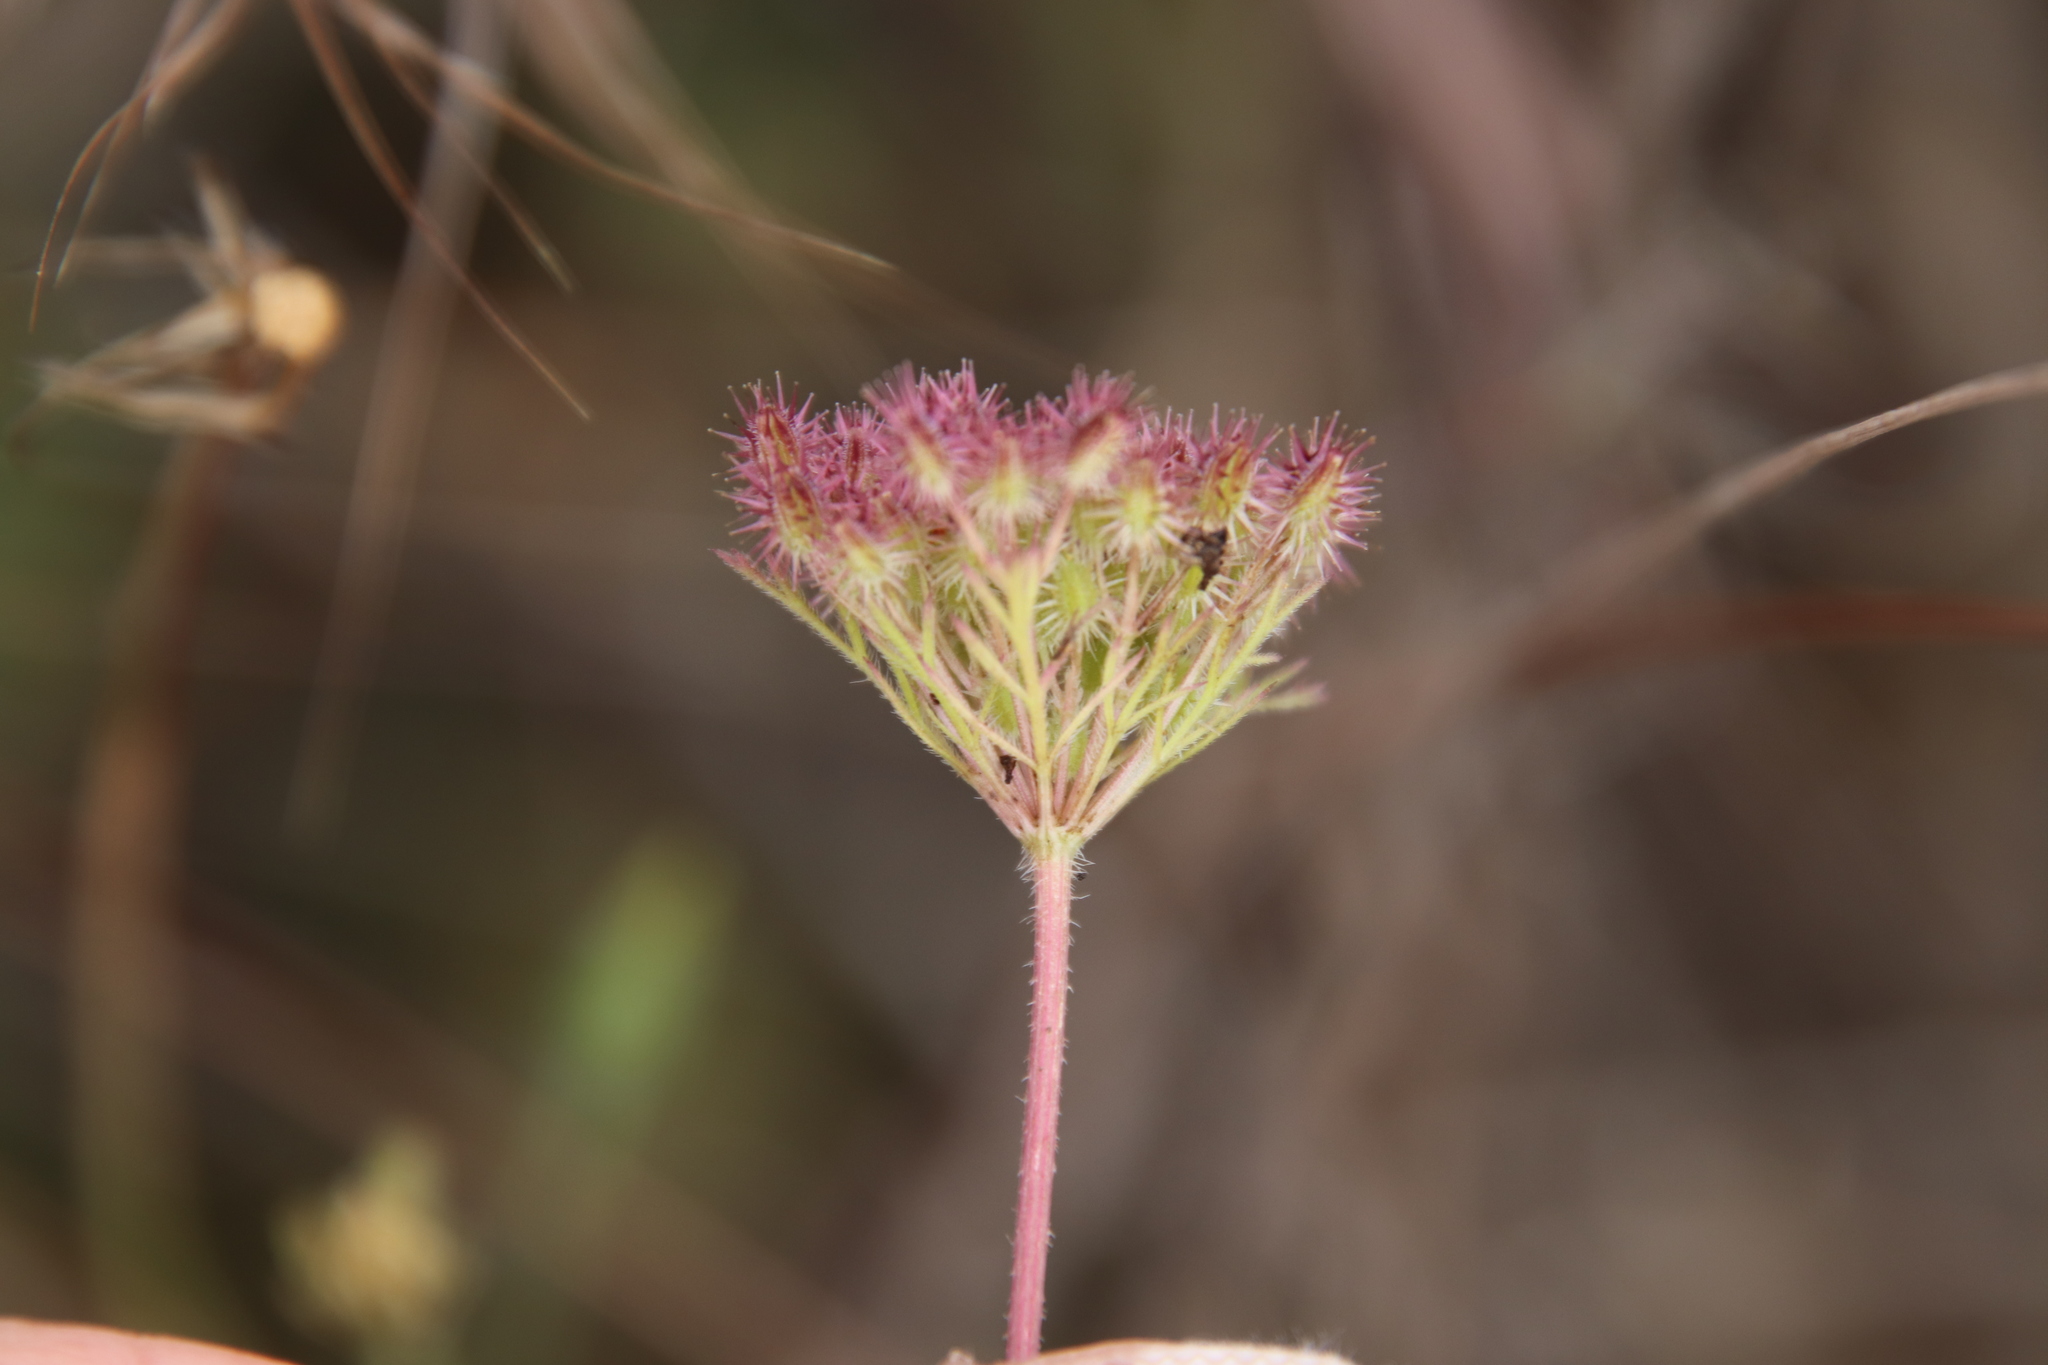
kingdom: Plantae
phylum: Tracheophyta
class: Magnoliopsida
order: Apiales
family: Apiaceae
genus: Daucus
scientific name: Daucus pusillus
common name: Southwest wild carrot
